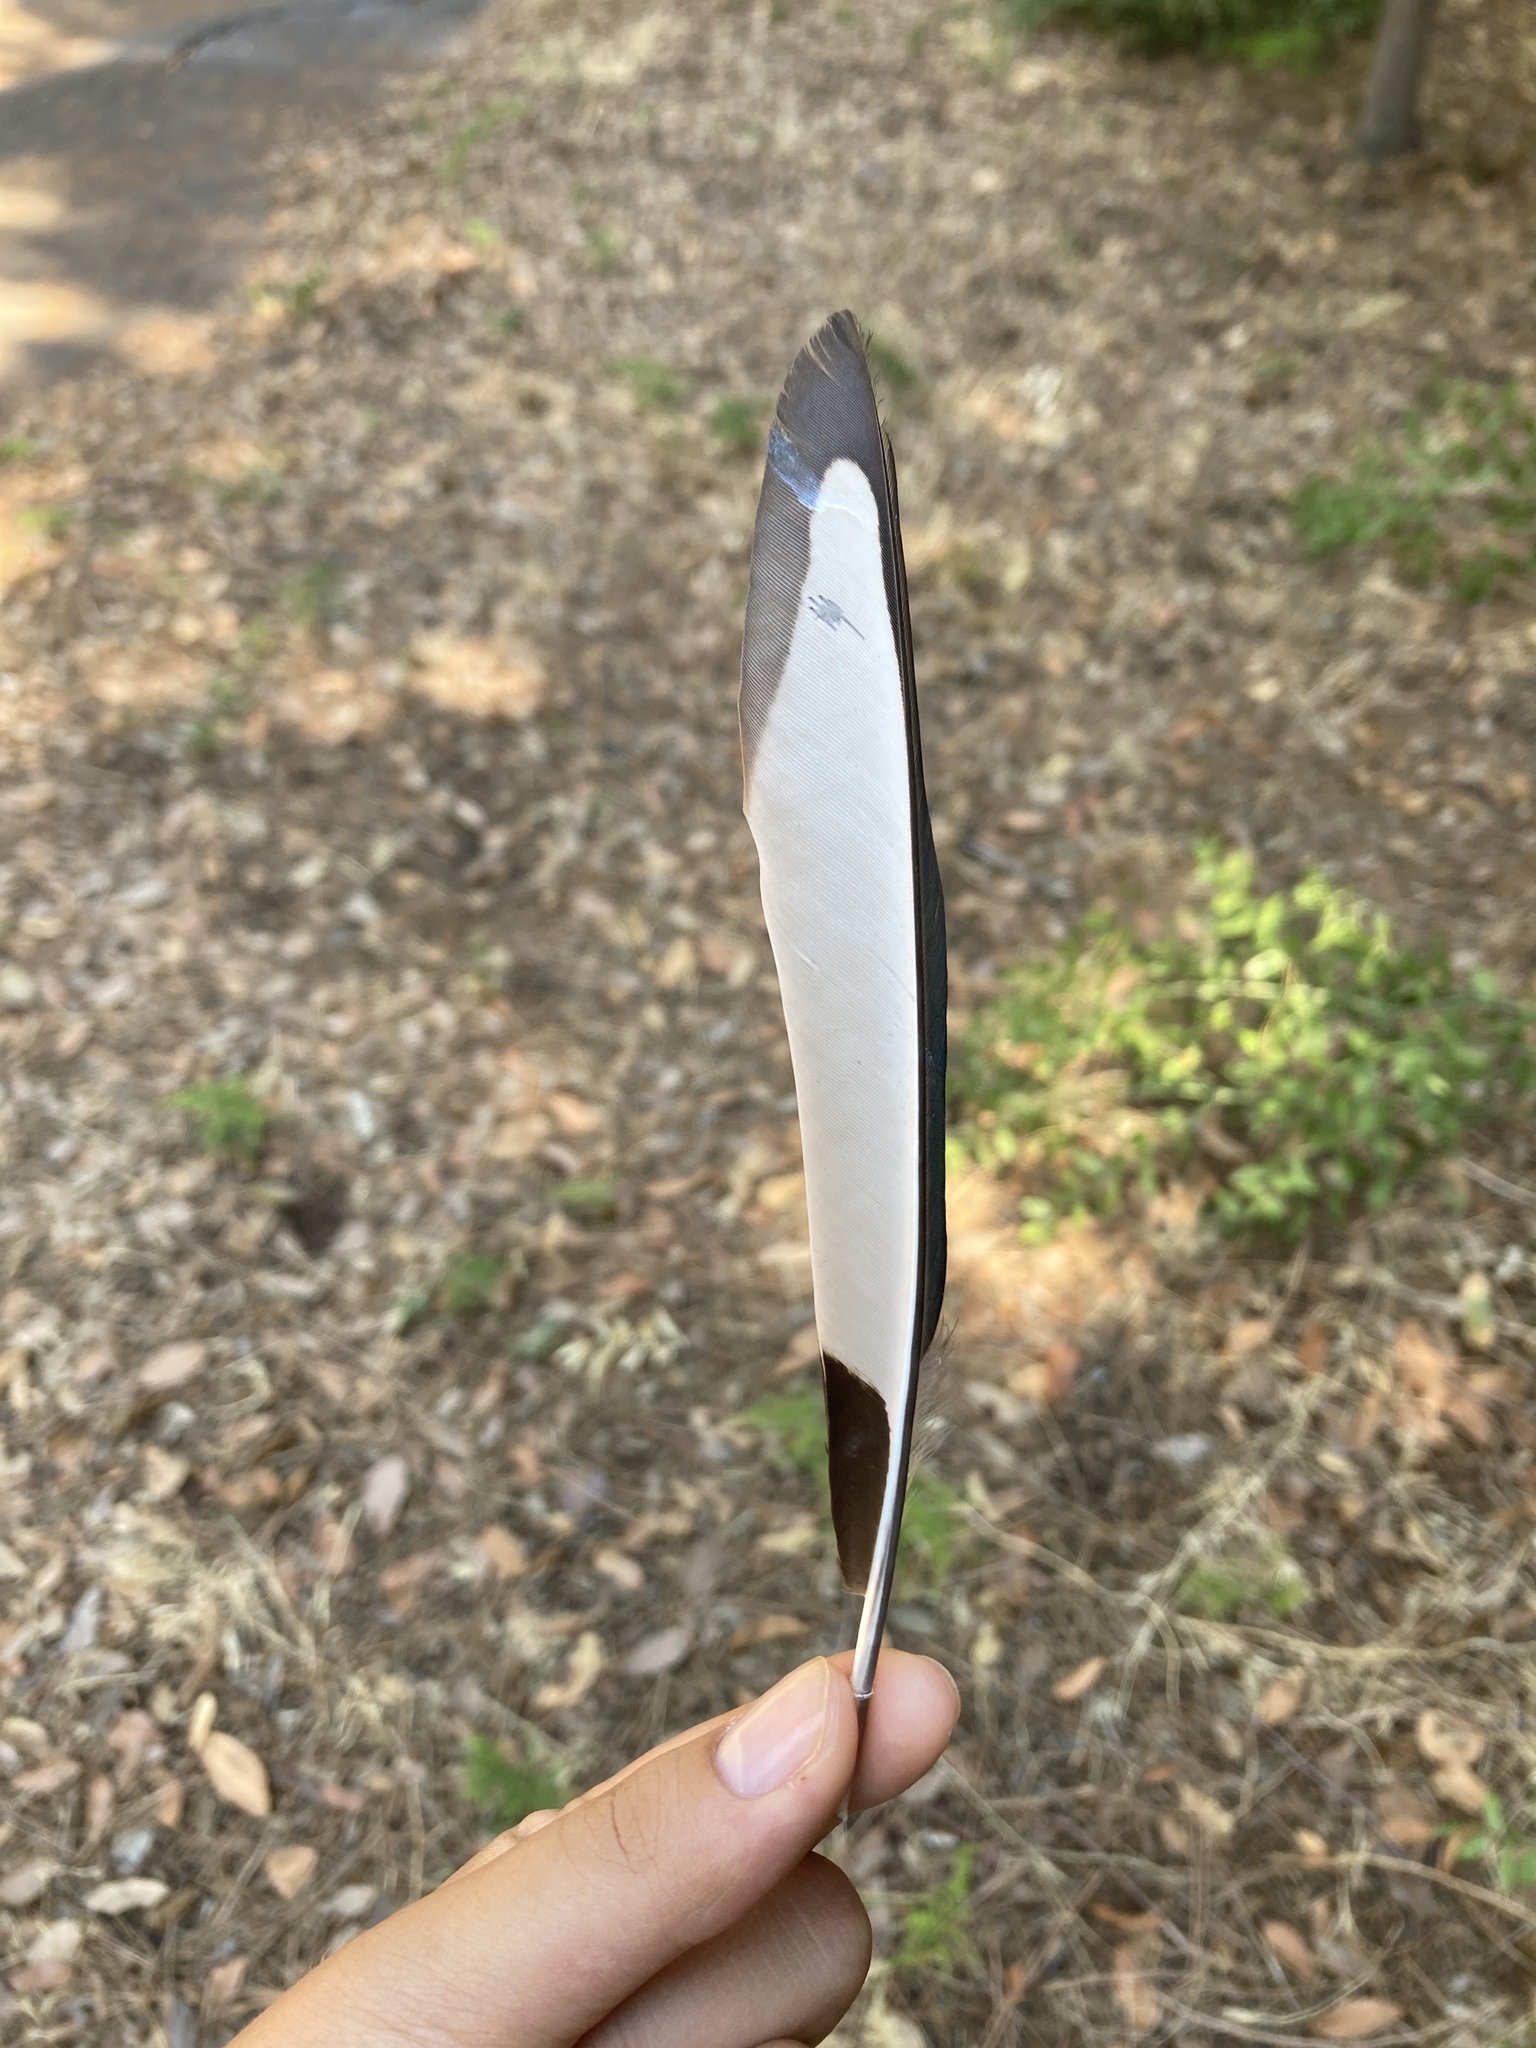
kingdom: Animalia
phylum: Chordata
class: Aves
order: Passeriformes
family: Corvidae
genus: Pica
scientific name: Pica pica
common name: Eurasian magpie
